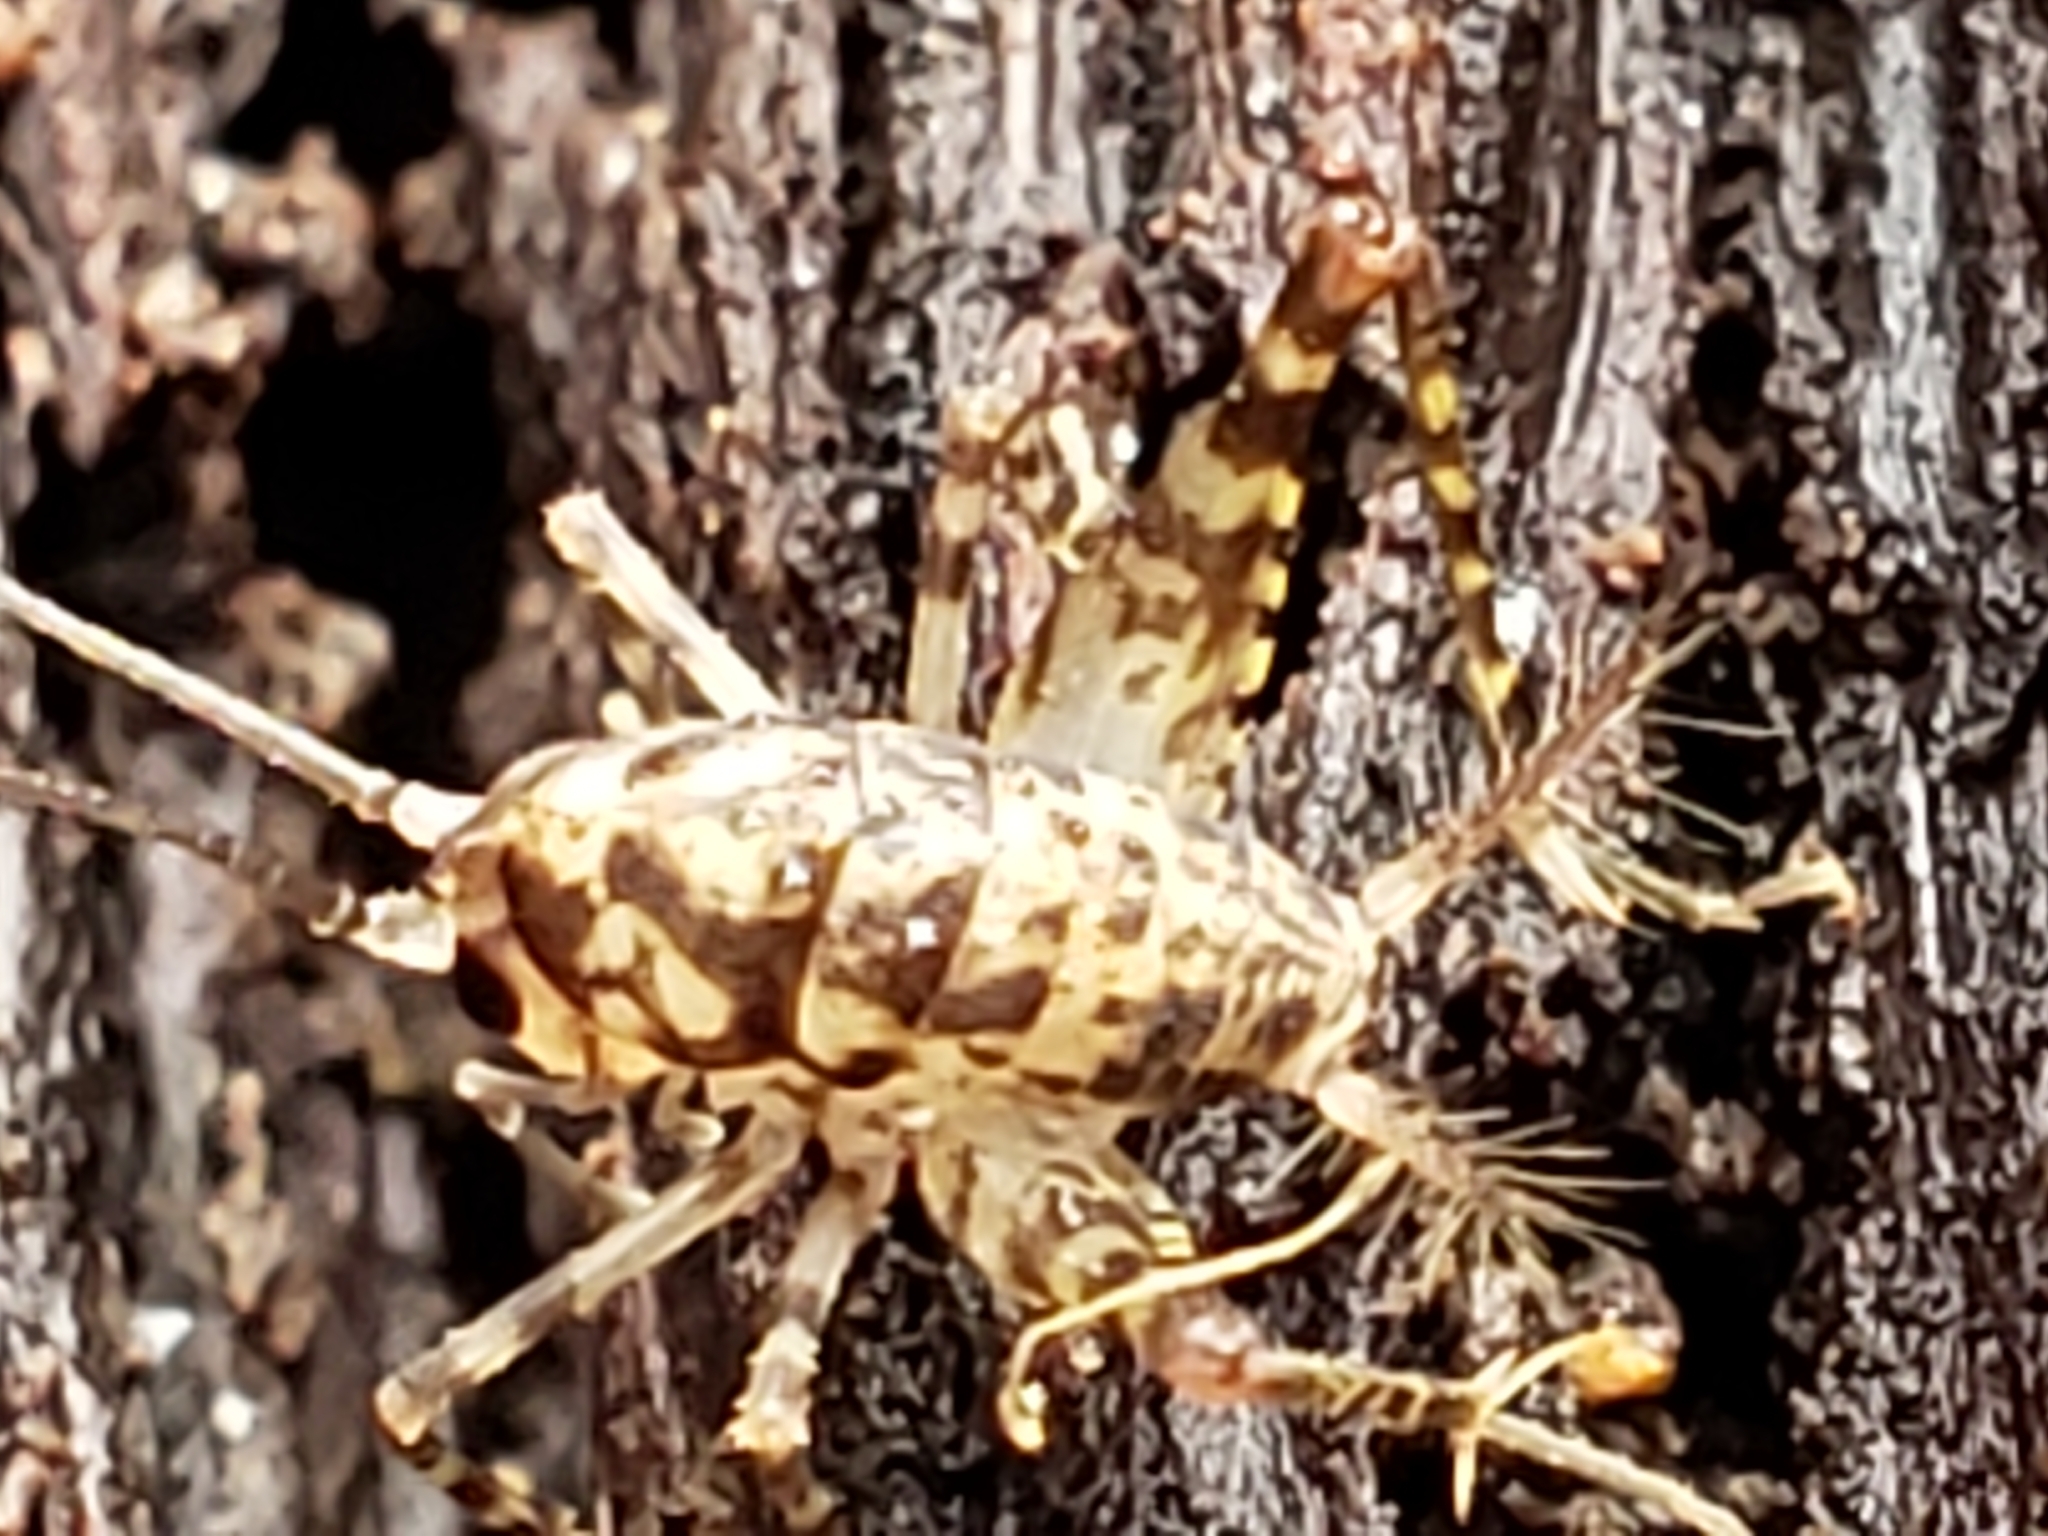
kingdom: Animalia
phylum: Arthropoda
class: Insecta
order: Orthoptera
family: Rhaphidophoridae
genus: Tachycines
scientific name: Tachycines asynamorus
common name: Greenhouse camel cricket
